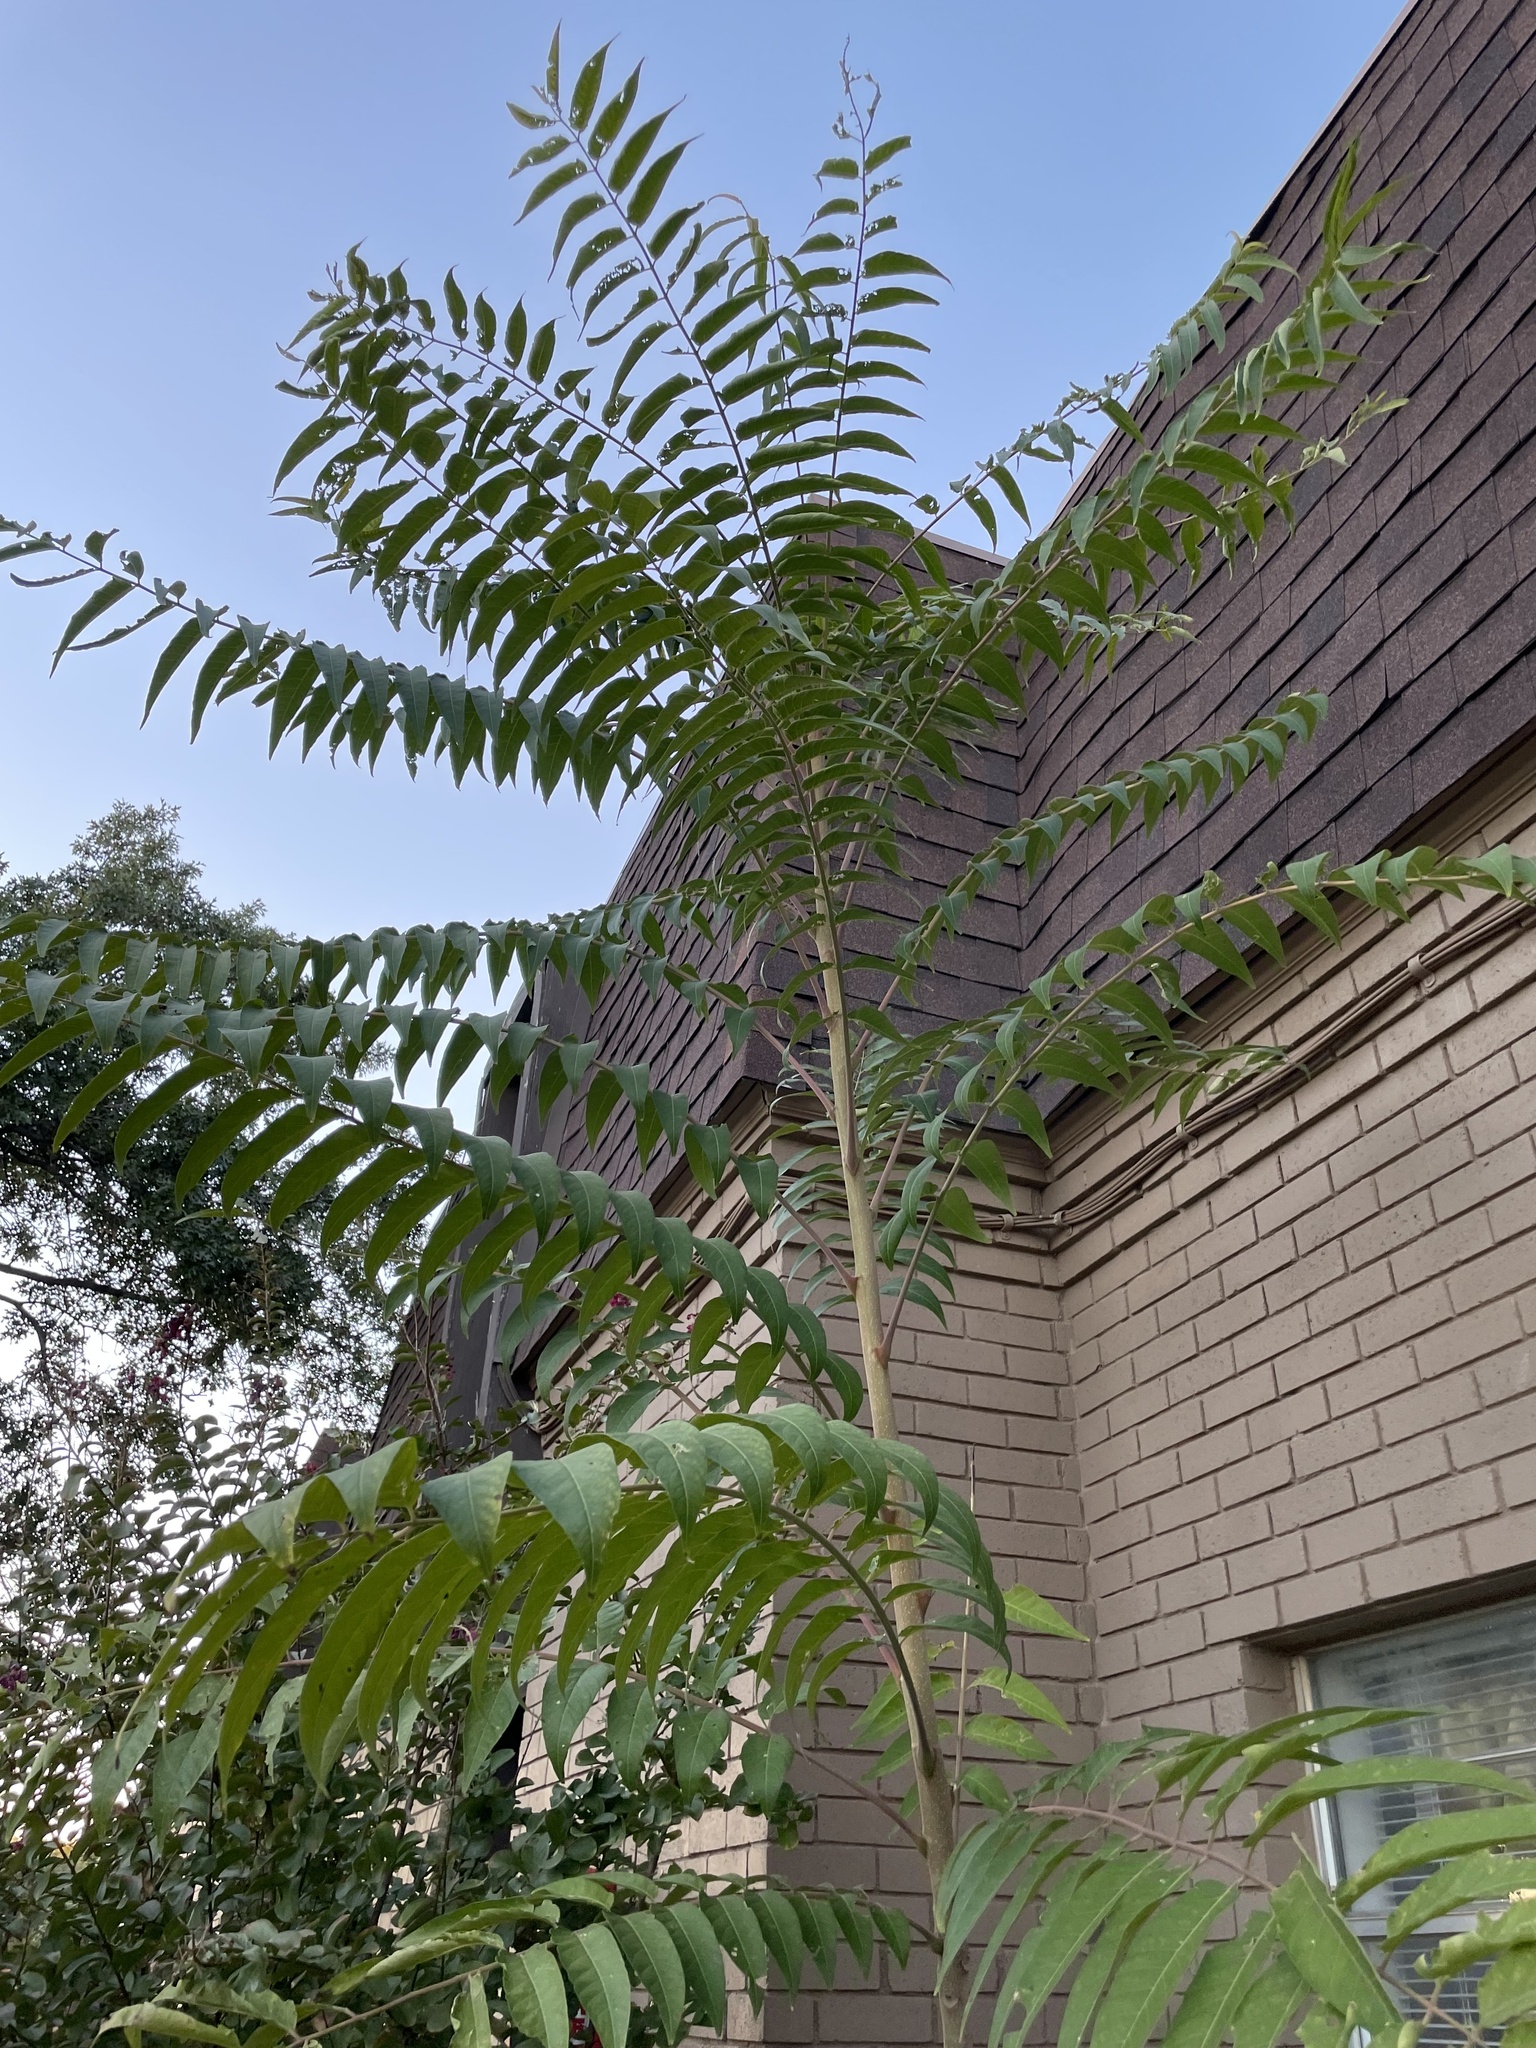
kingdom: Plantae
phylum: Tracheophyta
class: Magnoliopsida
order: Sapindales
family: Simaroubaceae
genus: Ailanthus
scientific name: Ailanthus altissima
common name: Tree-of-heaven
